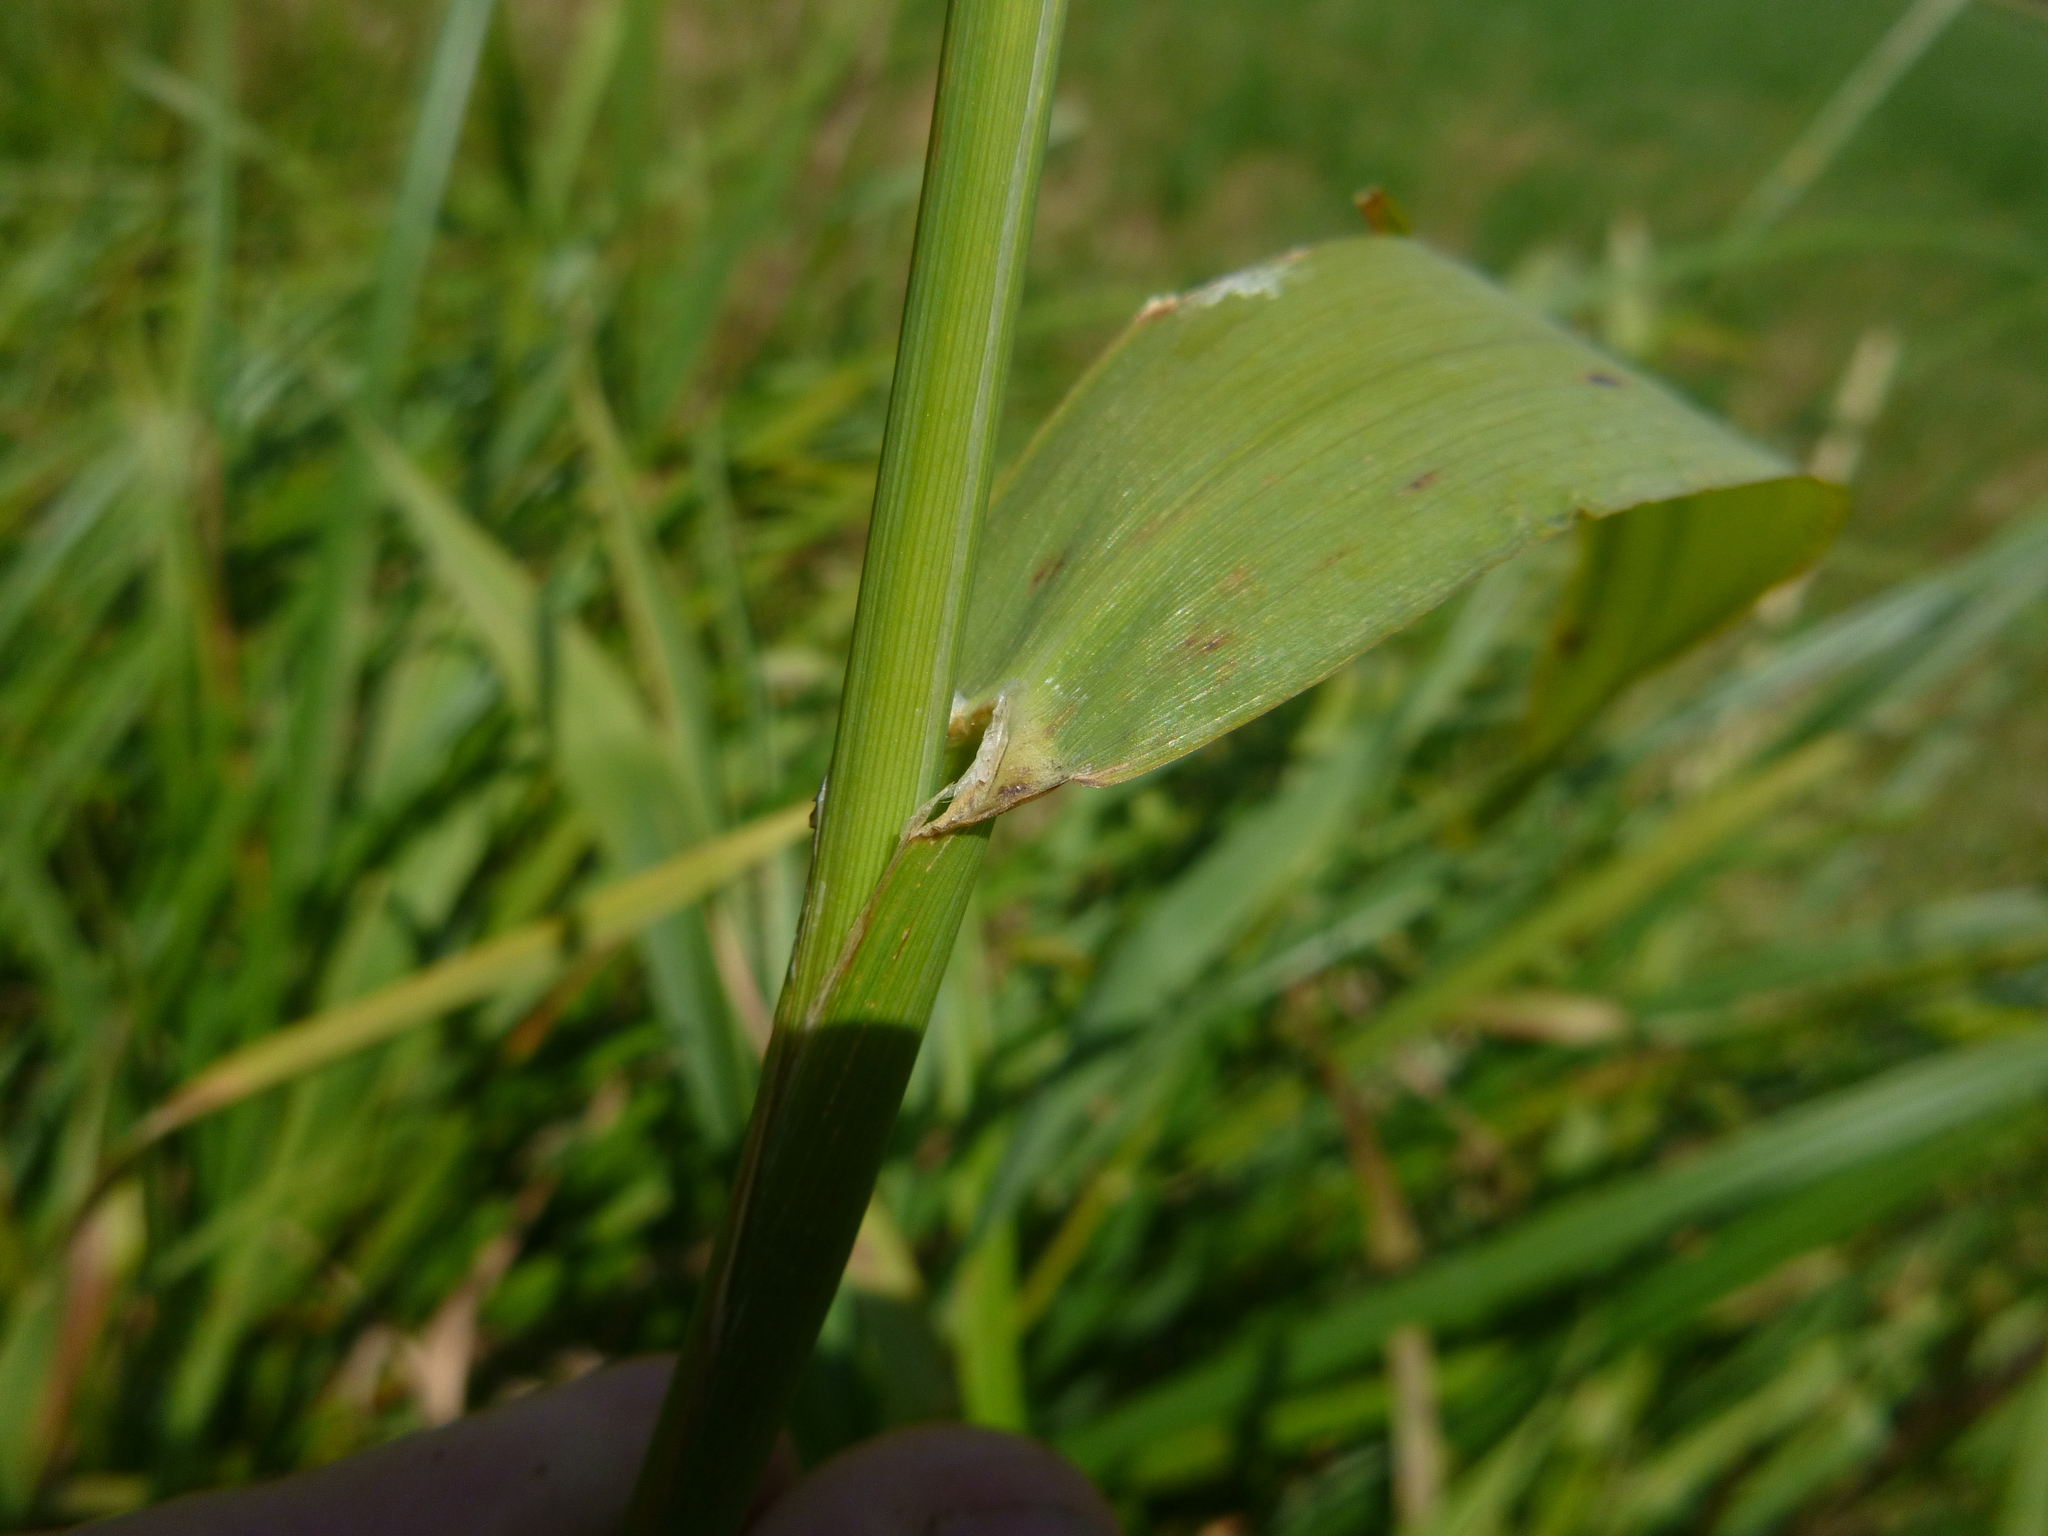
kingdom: Plantae
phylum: Tracheophyta
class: Liliopsida
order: Poales
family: Poaceae
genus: Phalaris
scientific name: Phalaris arundinacea
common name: Reed canary-grass
